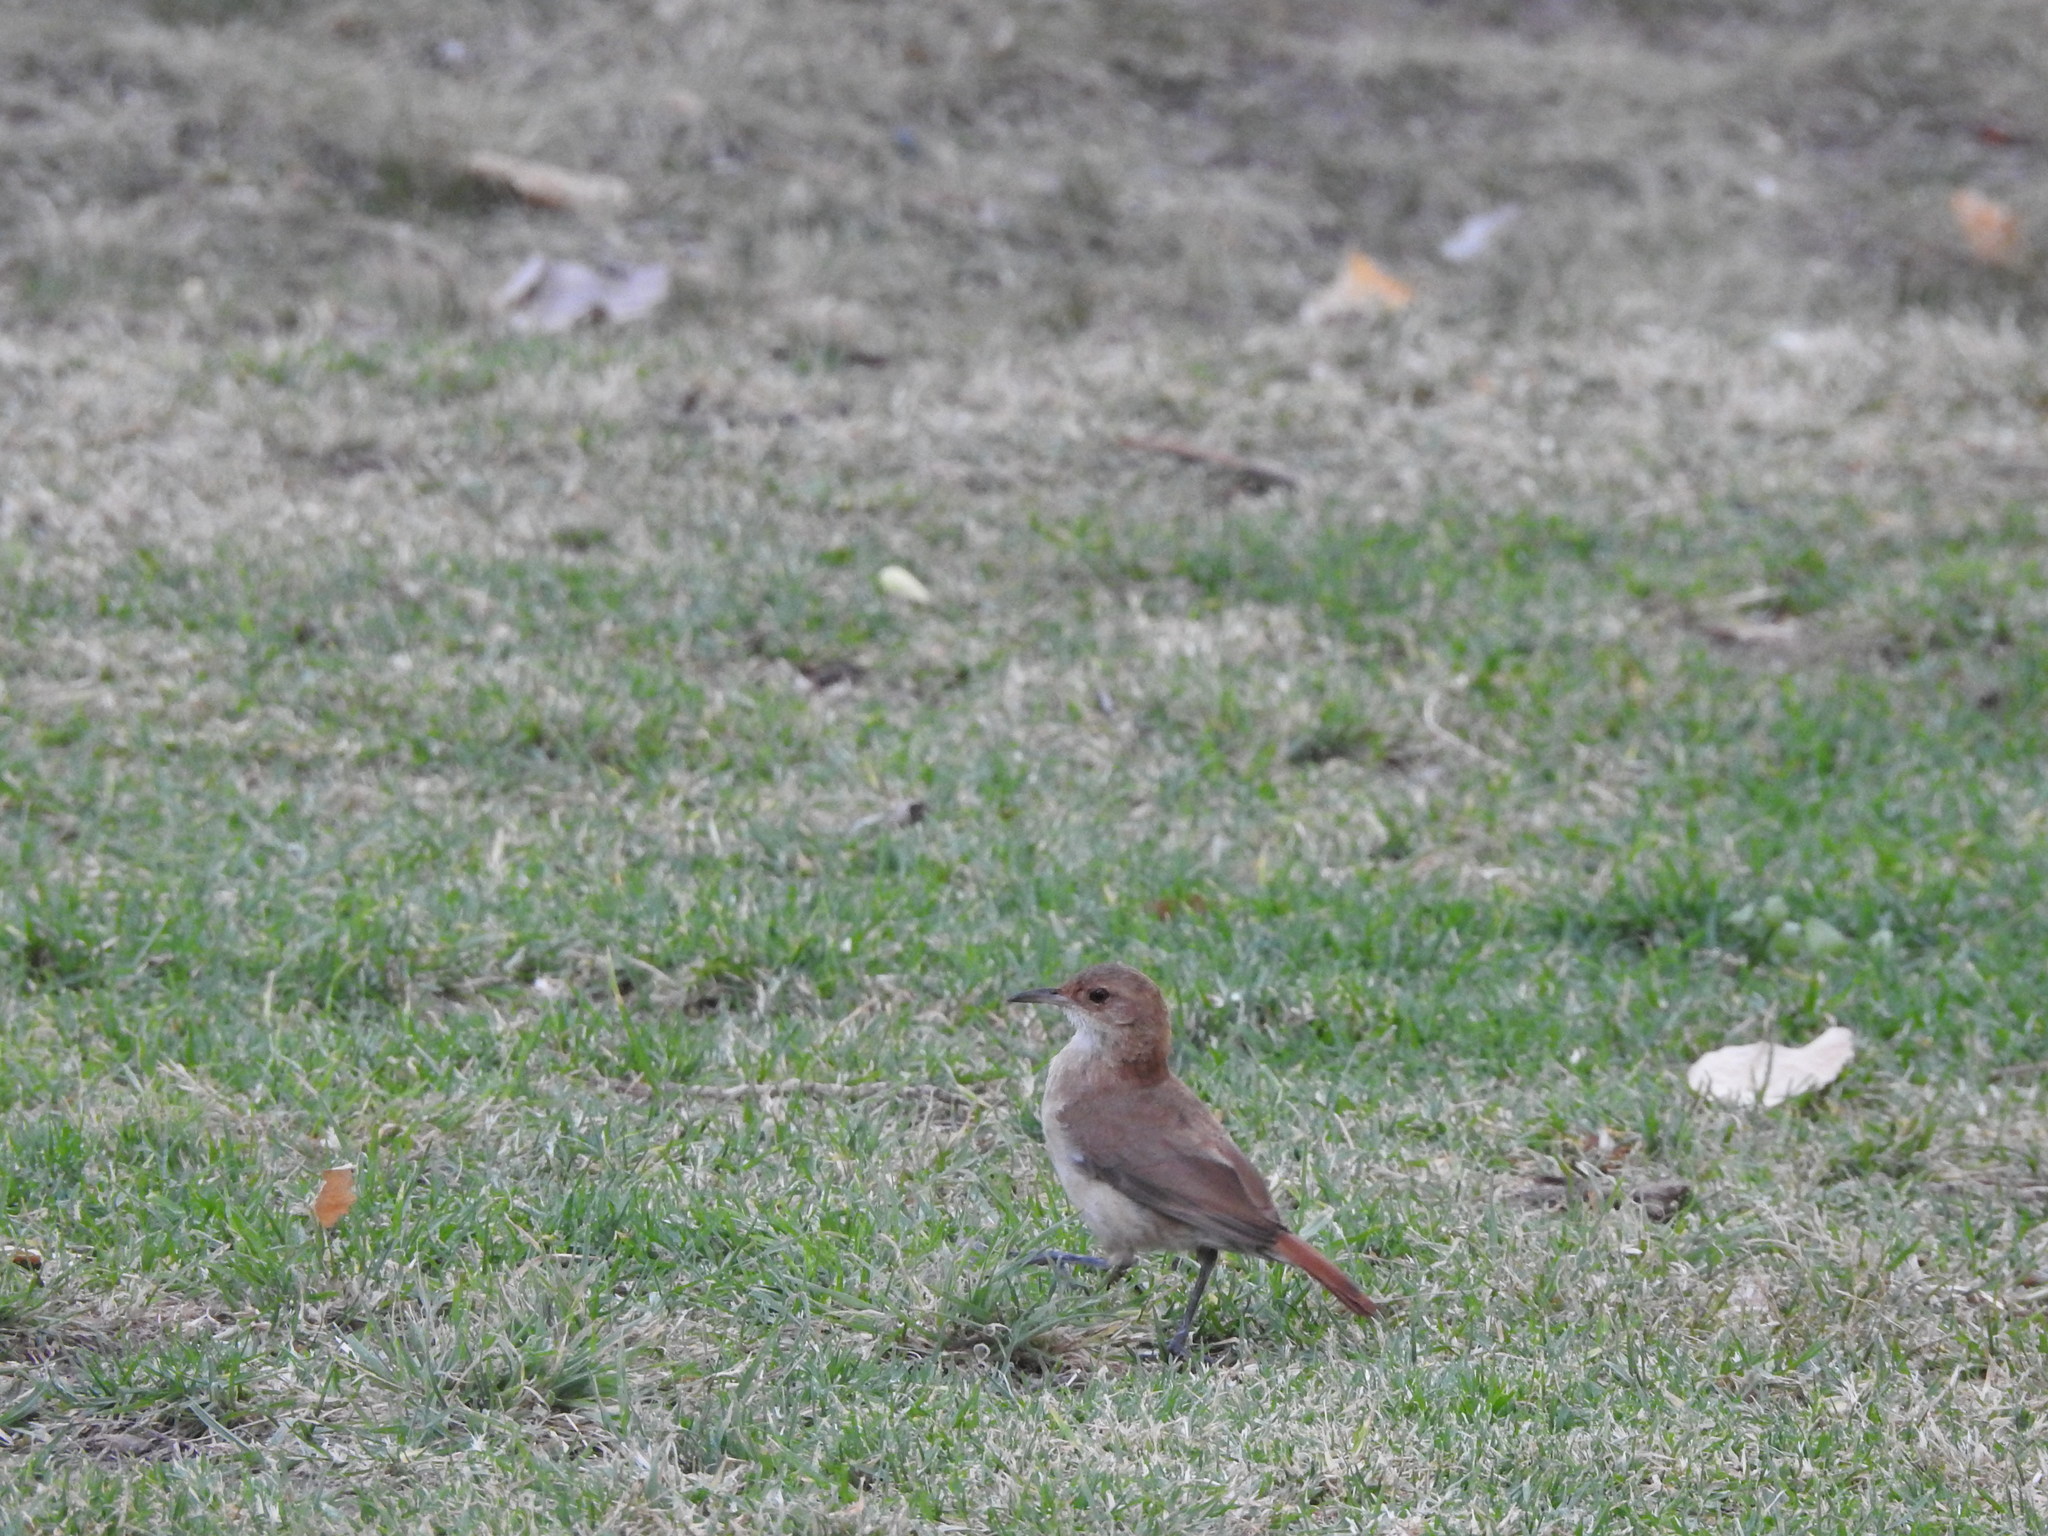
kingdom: Animalia
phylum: Chordata
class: Aves
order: Passeriformes
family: Furnariidae
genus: Furnarius
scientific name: Furnarius rufus
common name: Rufous hornero
